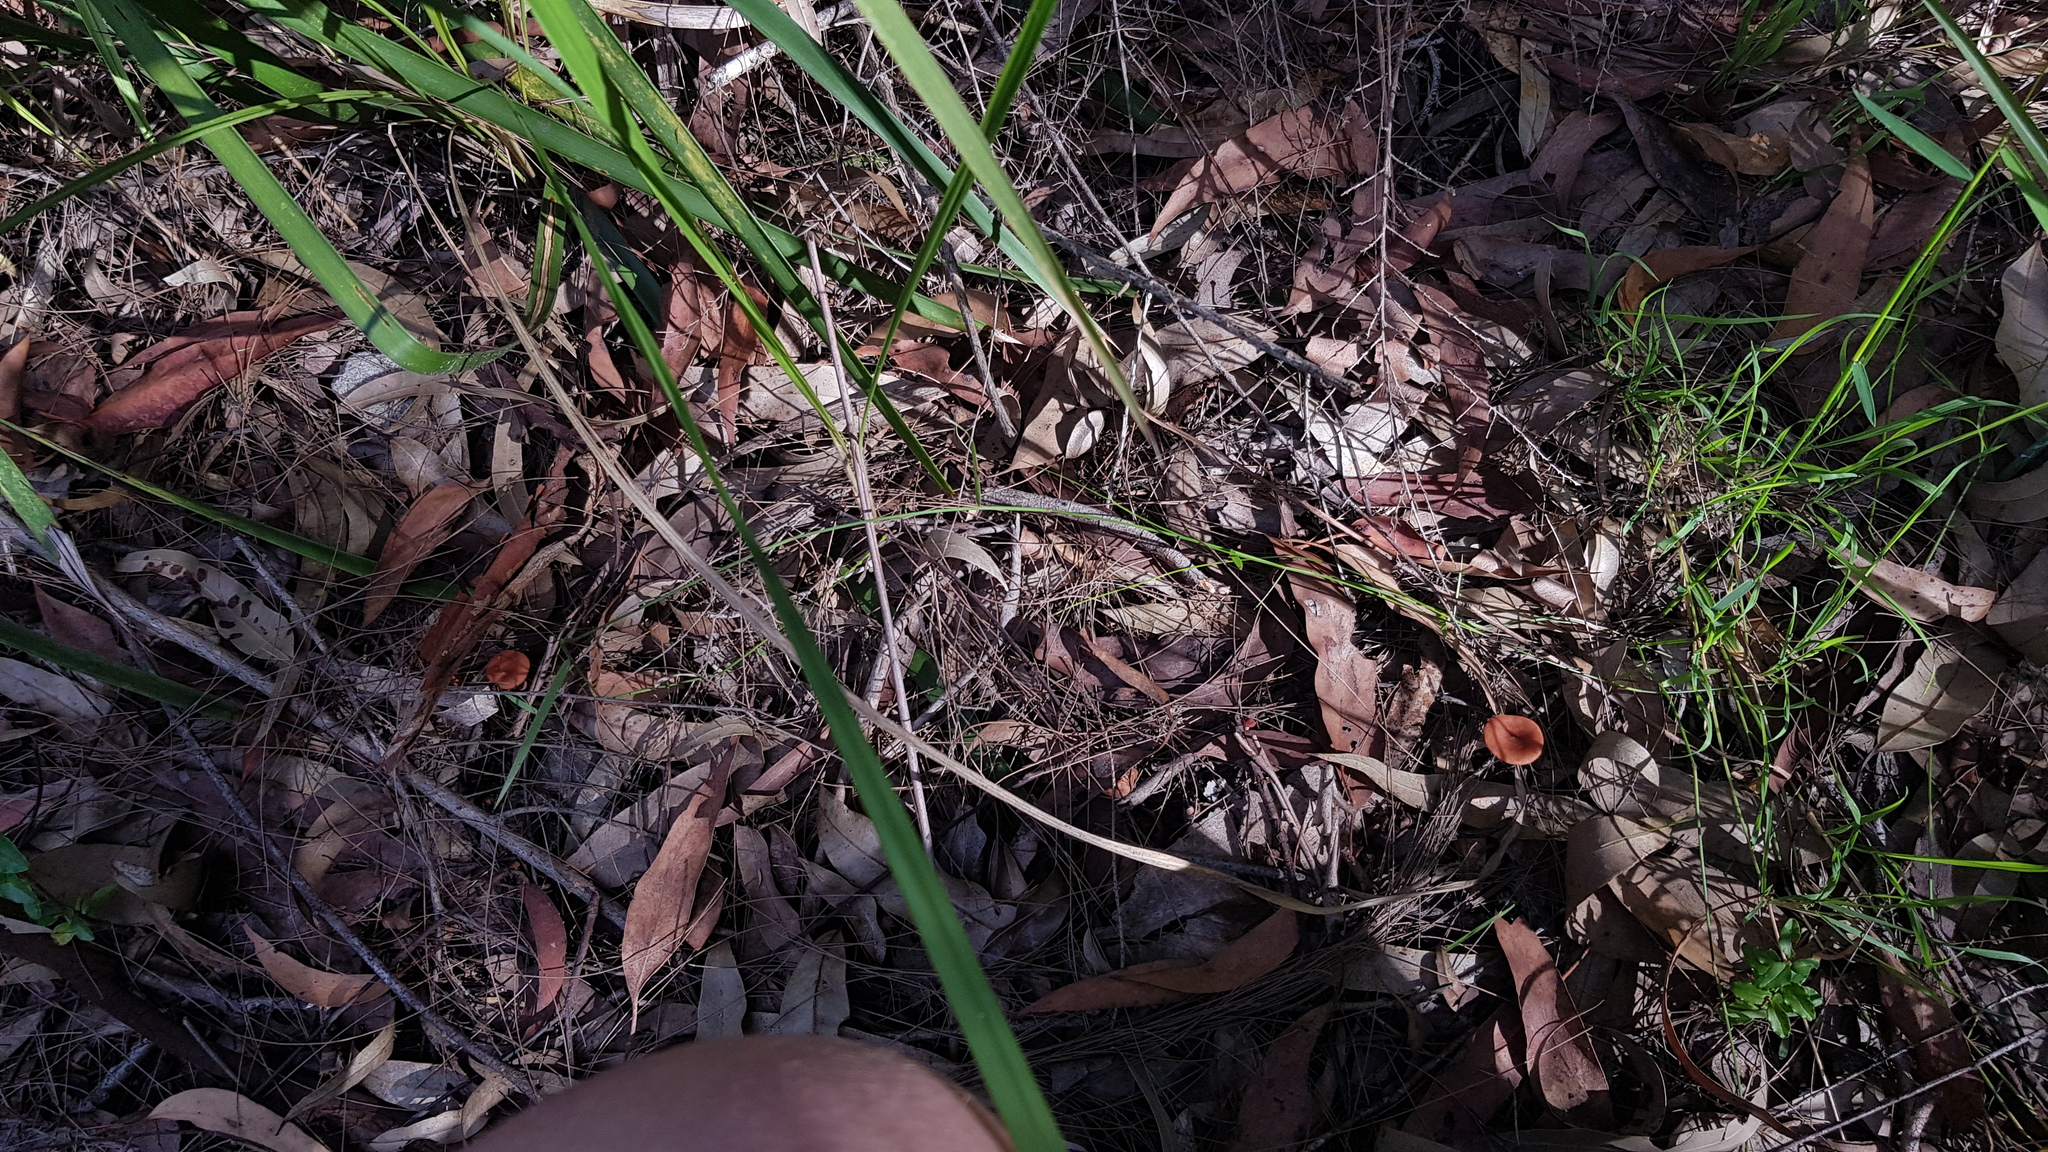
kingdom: Fungi
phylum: Basidiomycota
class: Agaricomycetes
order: Russulales
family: Russulaceae
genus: Lactarius
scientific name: Lactarius eucalypti
